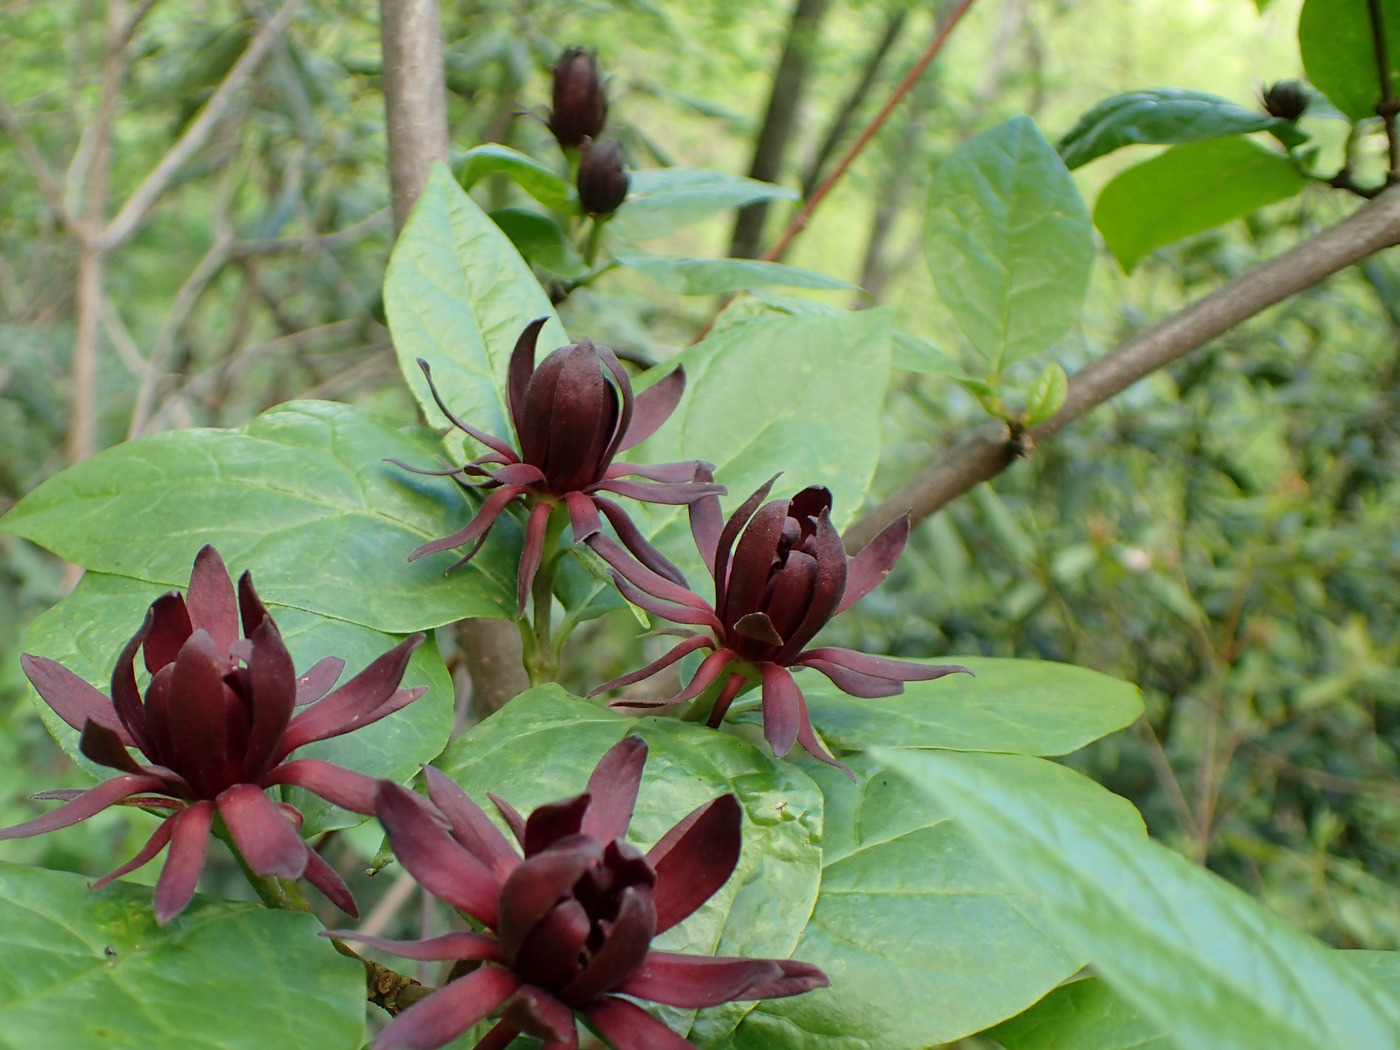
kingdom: Plantae
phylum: Tracheophyta
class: Magnoliopsida
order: Laurales
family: Calycanthaceae
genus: Calycanthus
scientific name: Calycanthus floridus
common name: Carolina-allspice
